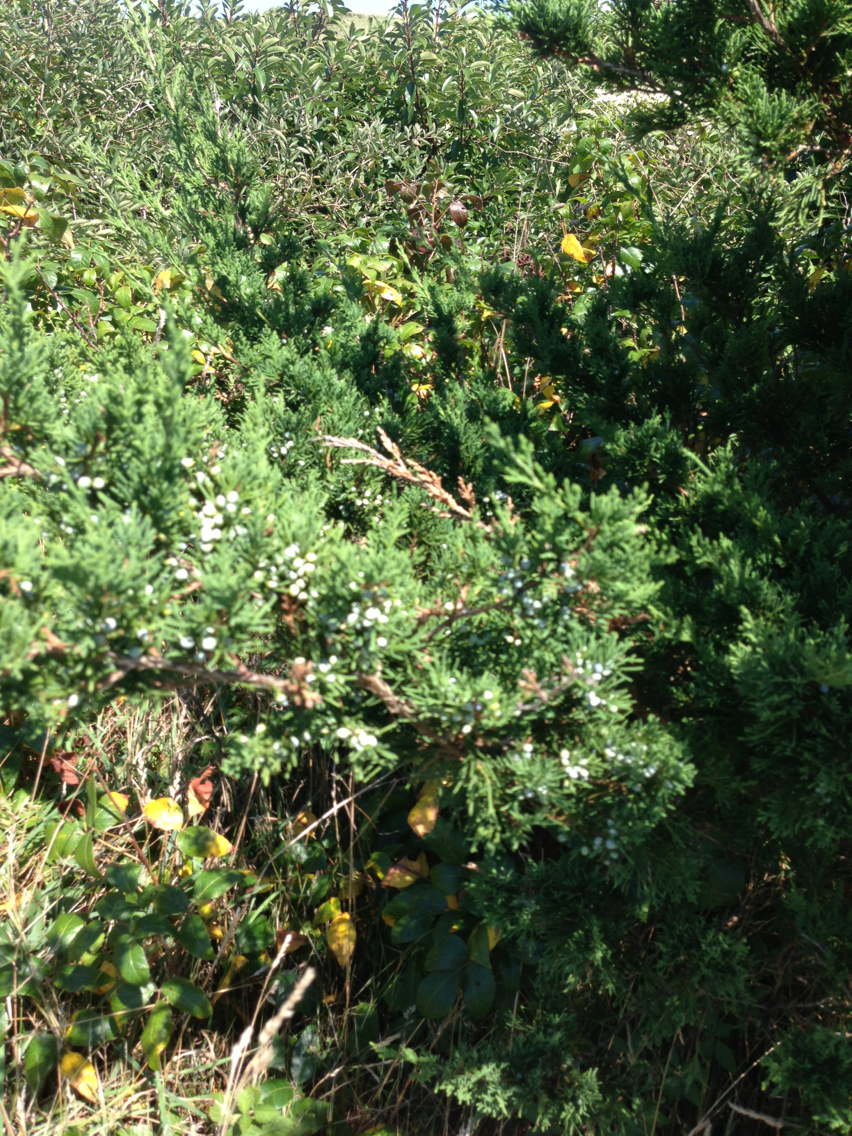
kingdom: Plantae
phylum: Tracheophyta
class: Pinopsida
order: Pinales
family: Cupressaceae
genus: Juniperus
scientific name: Juniperus virginiana
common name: Red juniper
